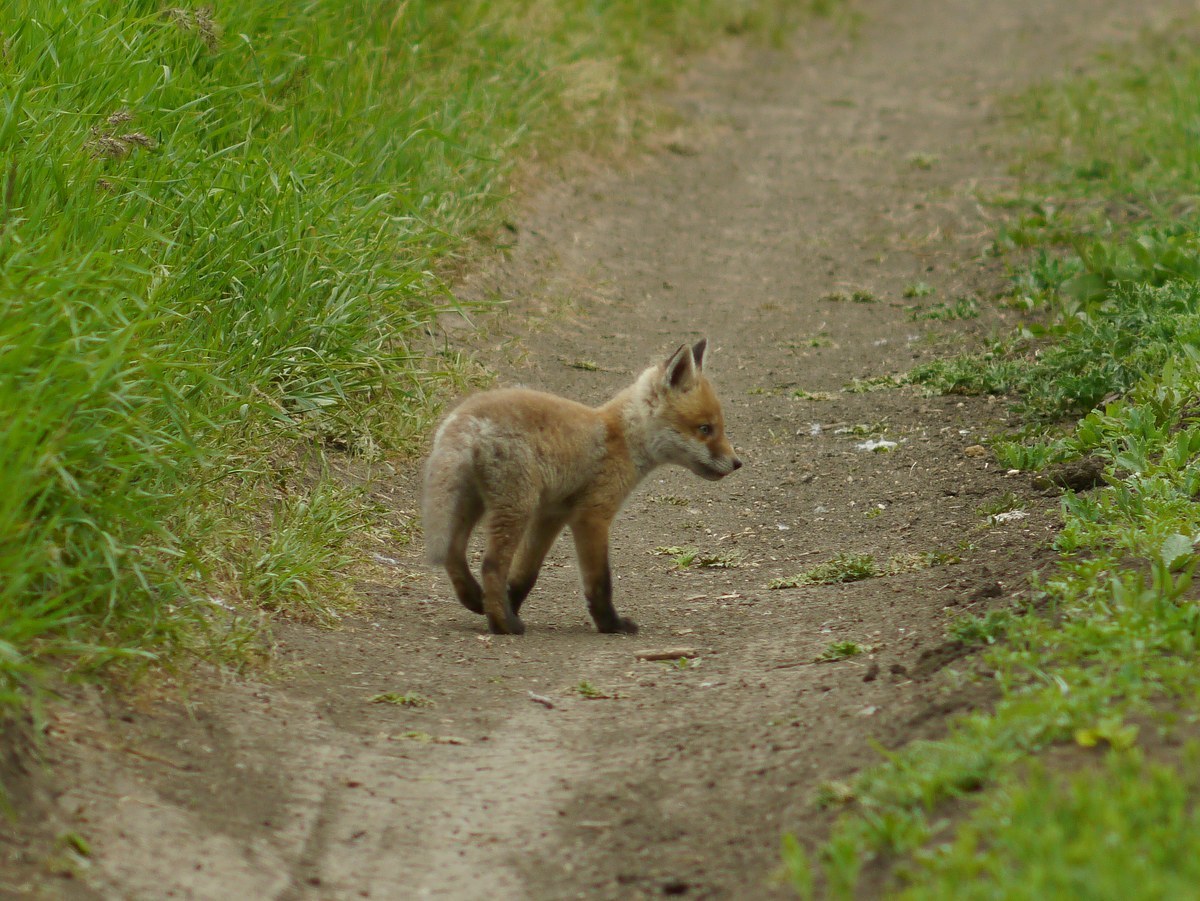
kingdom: Animalia
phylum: Chordata
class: Mammalia
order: Carnivora
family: Canidae
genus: Vulpes
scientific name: Vulpes vulpes
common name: Red fox
